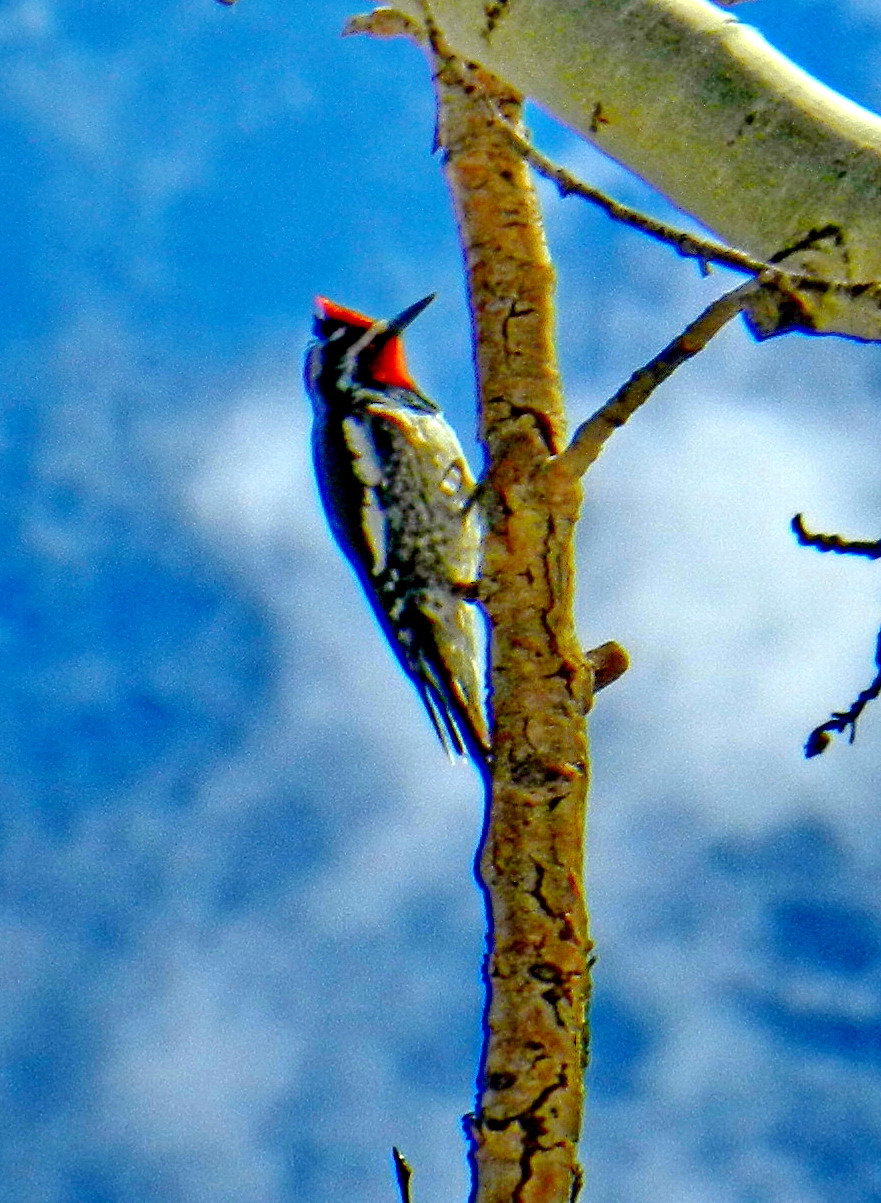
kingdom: Animalia
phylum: Chordata
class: Aves
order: Piciformes
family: Picidae
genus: Sphyrapicus
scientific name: Sphyrapicus nuchalis
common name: Red-naped sapsucker
